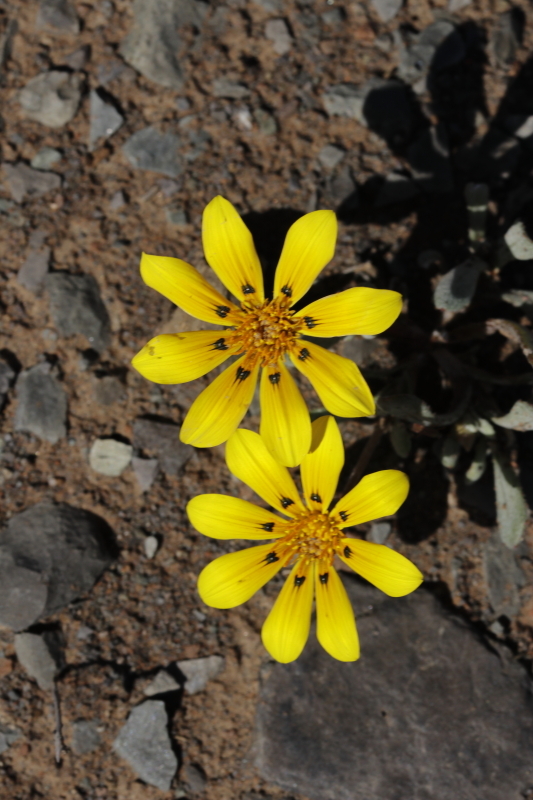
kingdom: Plantae
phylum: Tracheophyta
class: Magnoliopsida
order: Asterales
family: Asteraceae
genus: Gazania
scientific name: Gazania lichtensteinii
